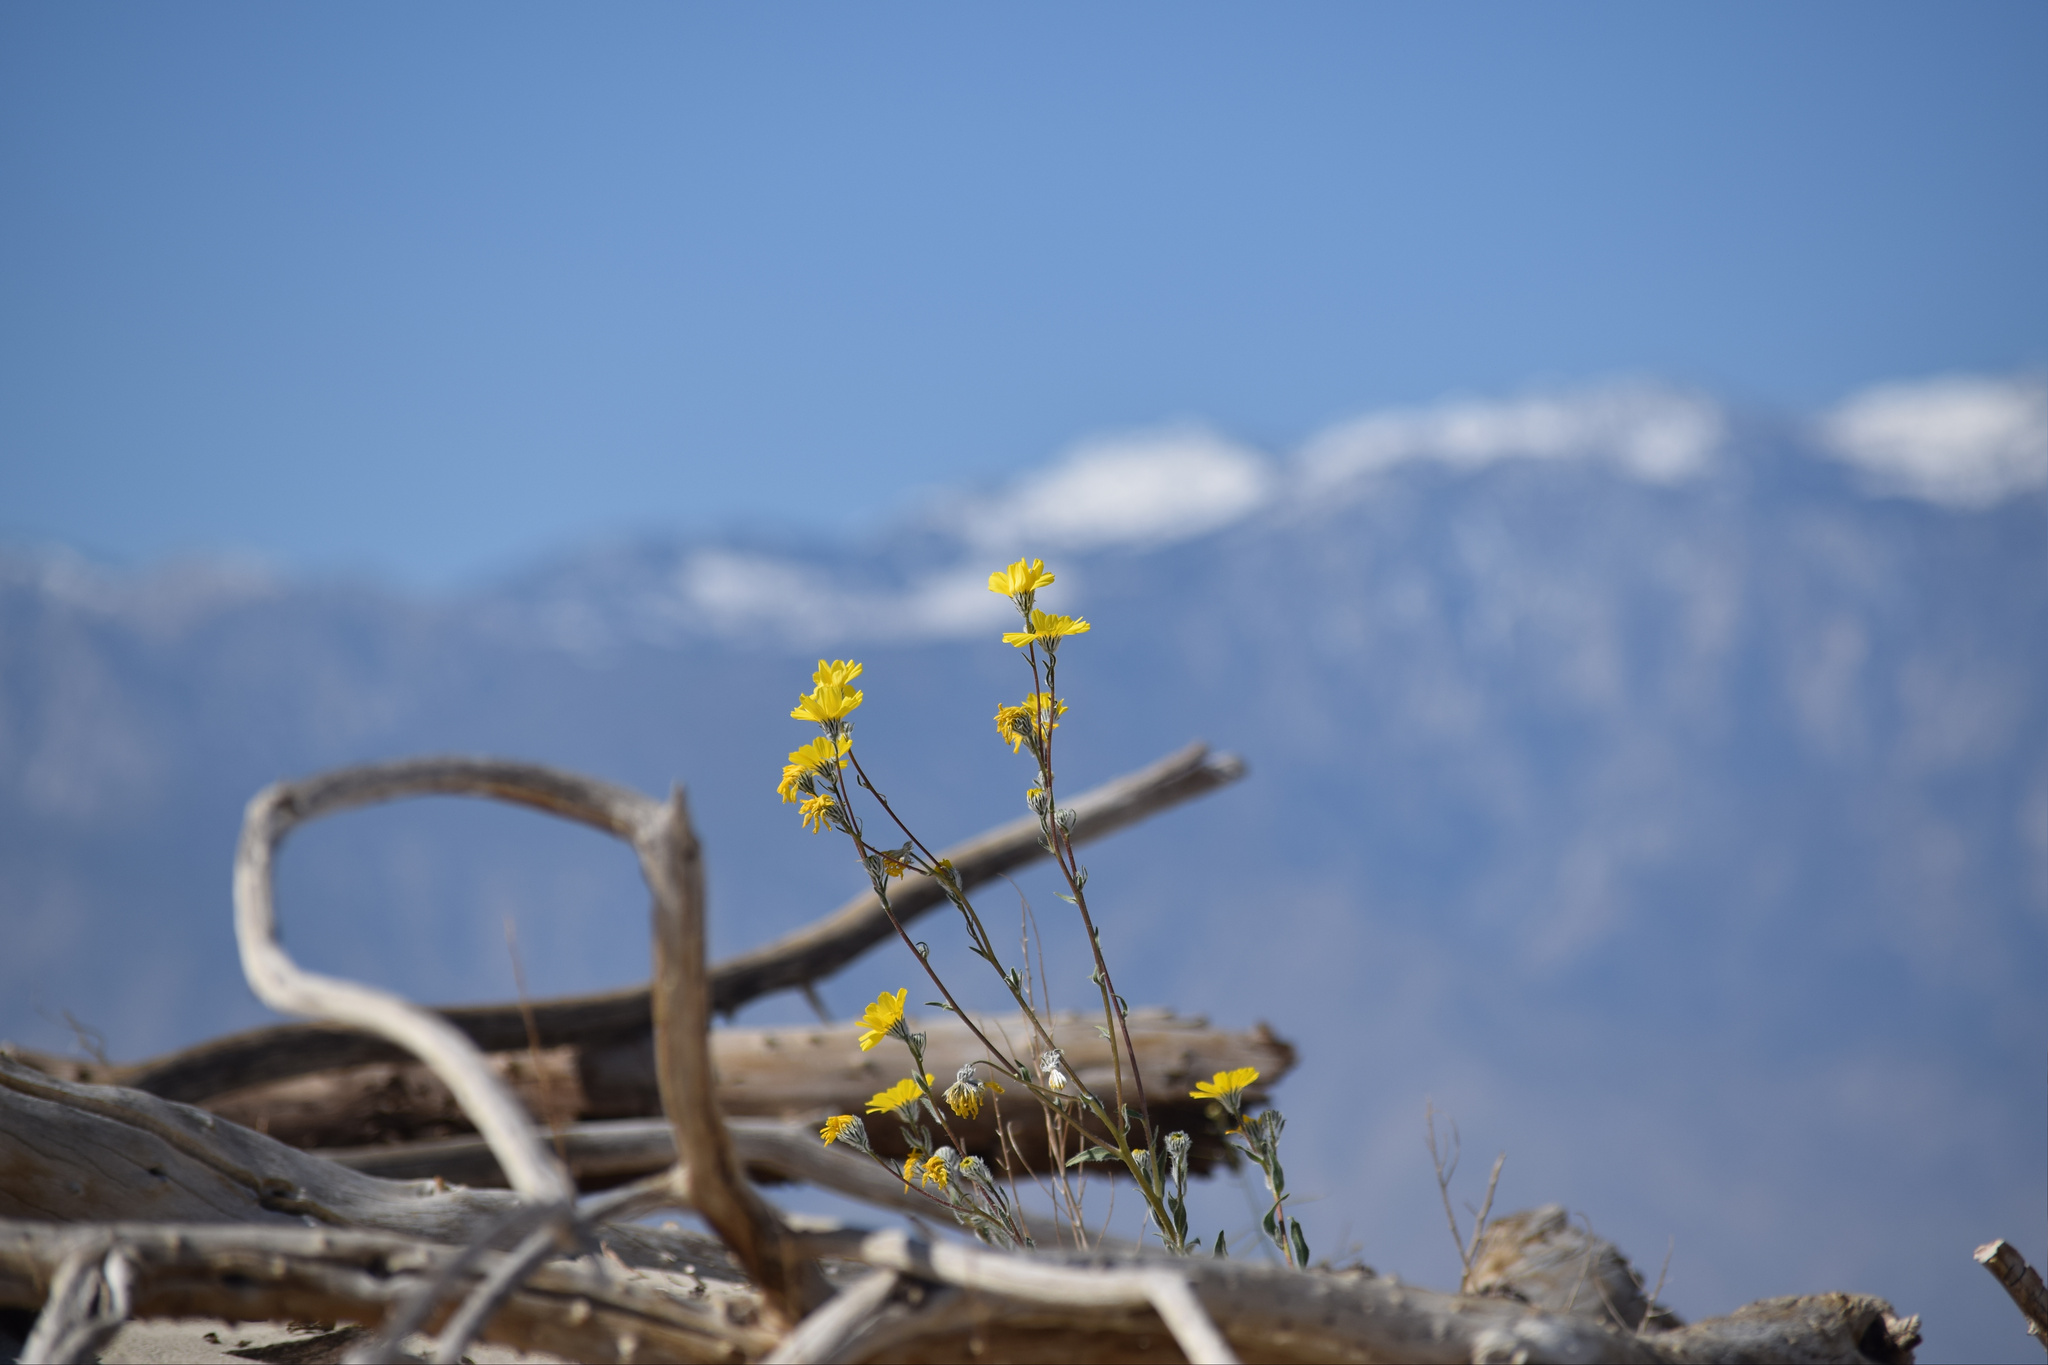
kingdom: Plantae
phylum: Tracheophyta
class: Magnoliopsida
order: Asterales
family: Asteraceae
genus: Geraea
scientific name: Geraea canescens
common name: Desert-gold
